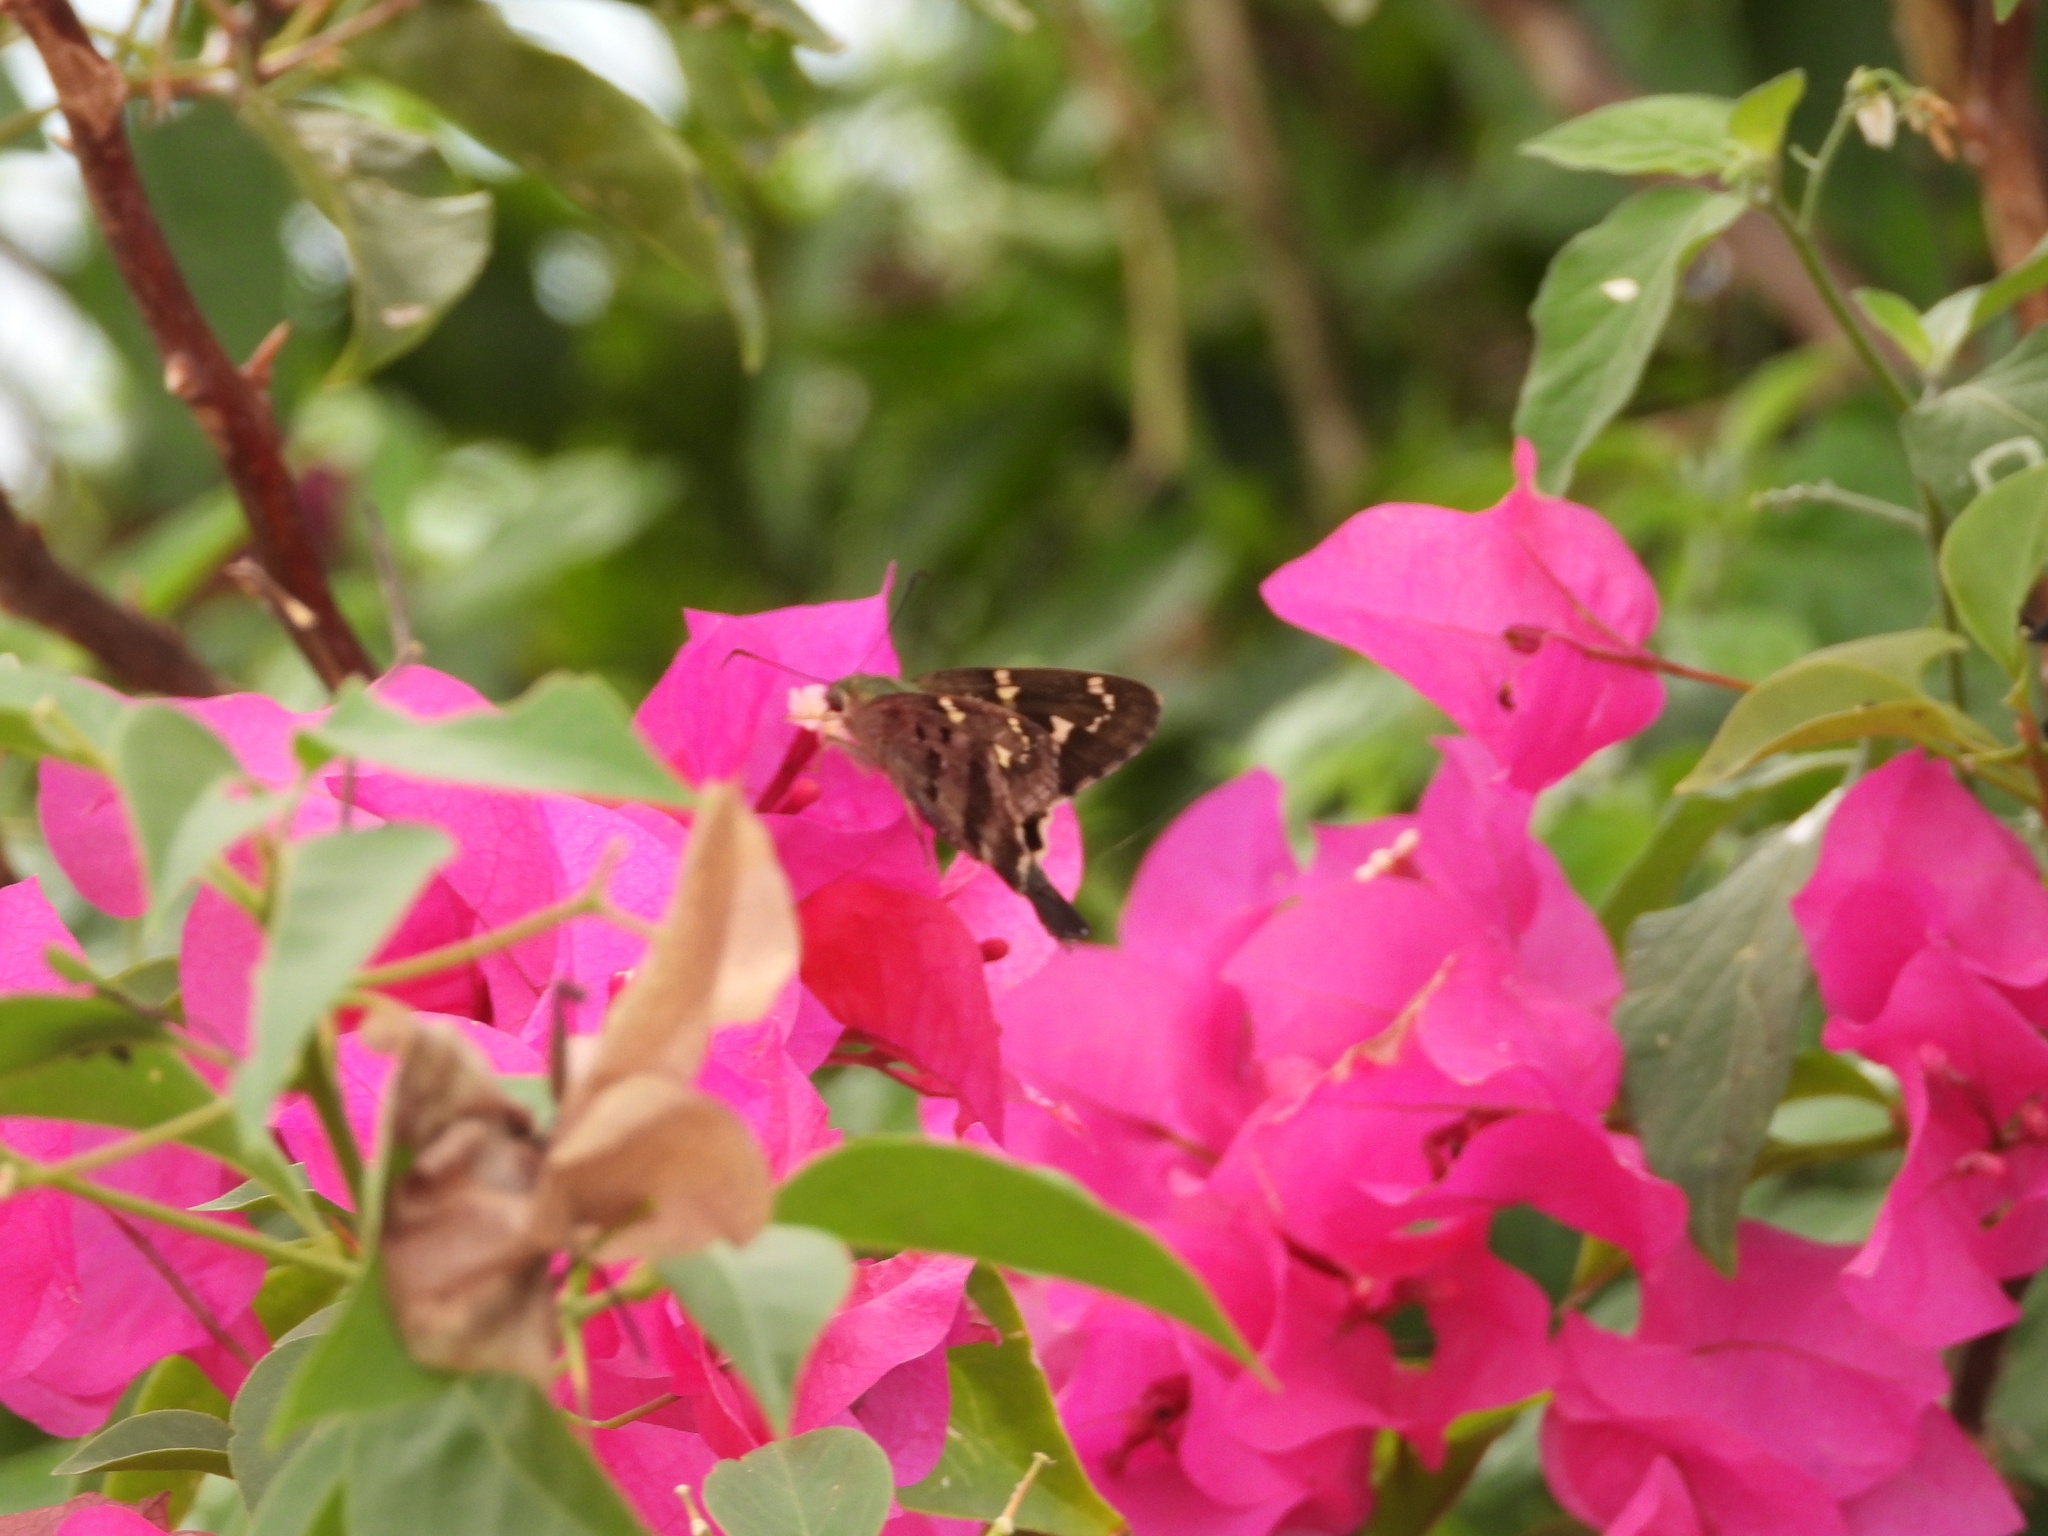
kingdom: Animalia
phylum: Arthropoda
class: Insecta
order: Lepidoptera
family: Hesperiidae
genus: Urbanus
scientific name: Urbanus proteus
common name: Long-tailed skipper
